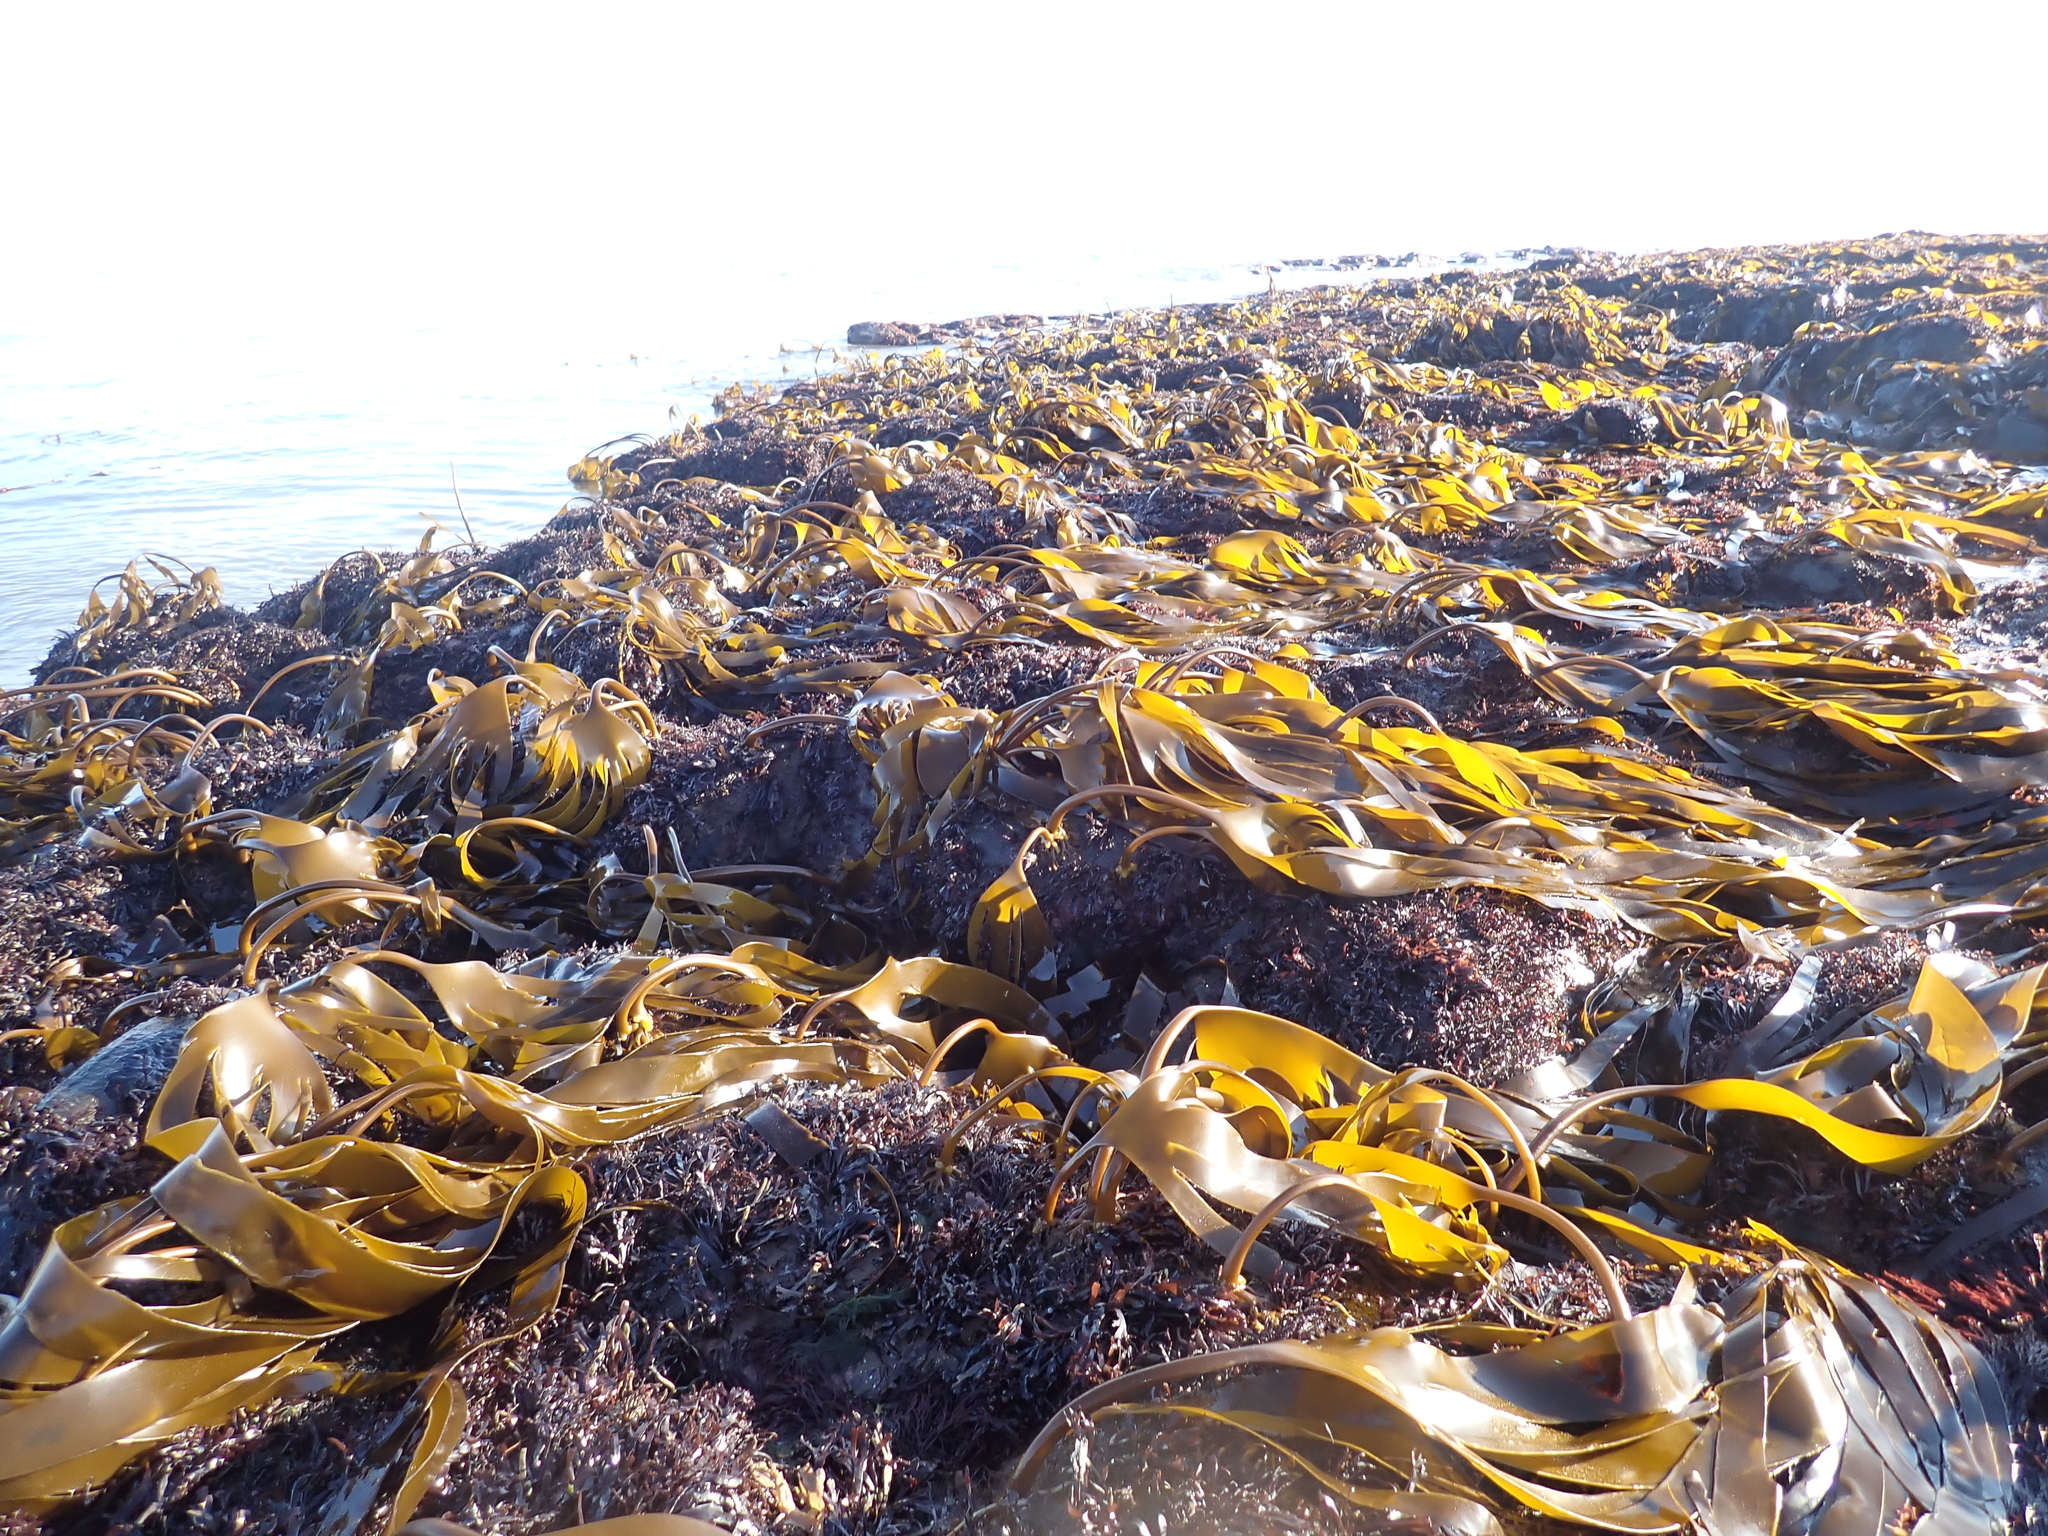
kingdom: Chromista
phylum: Ochrophyta
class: Phaeophyceae
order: Laminariales
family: Laminariaceae
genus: Laminaria
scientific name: Laminaria digitata
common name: Oarweed
